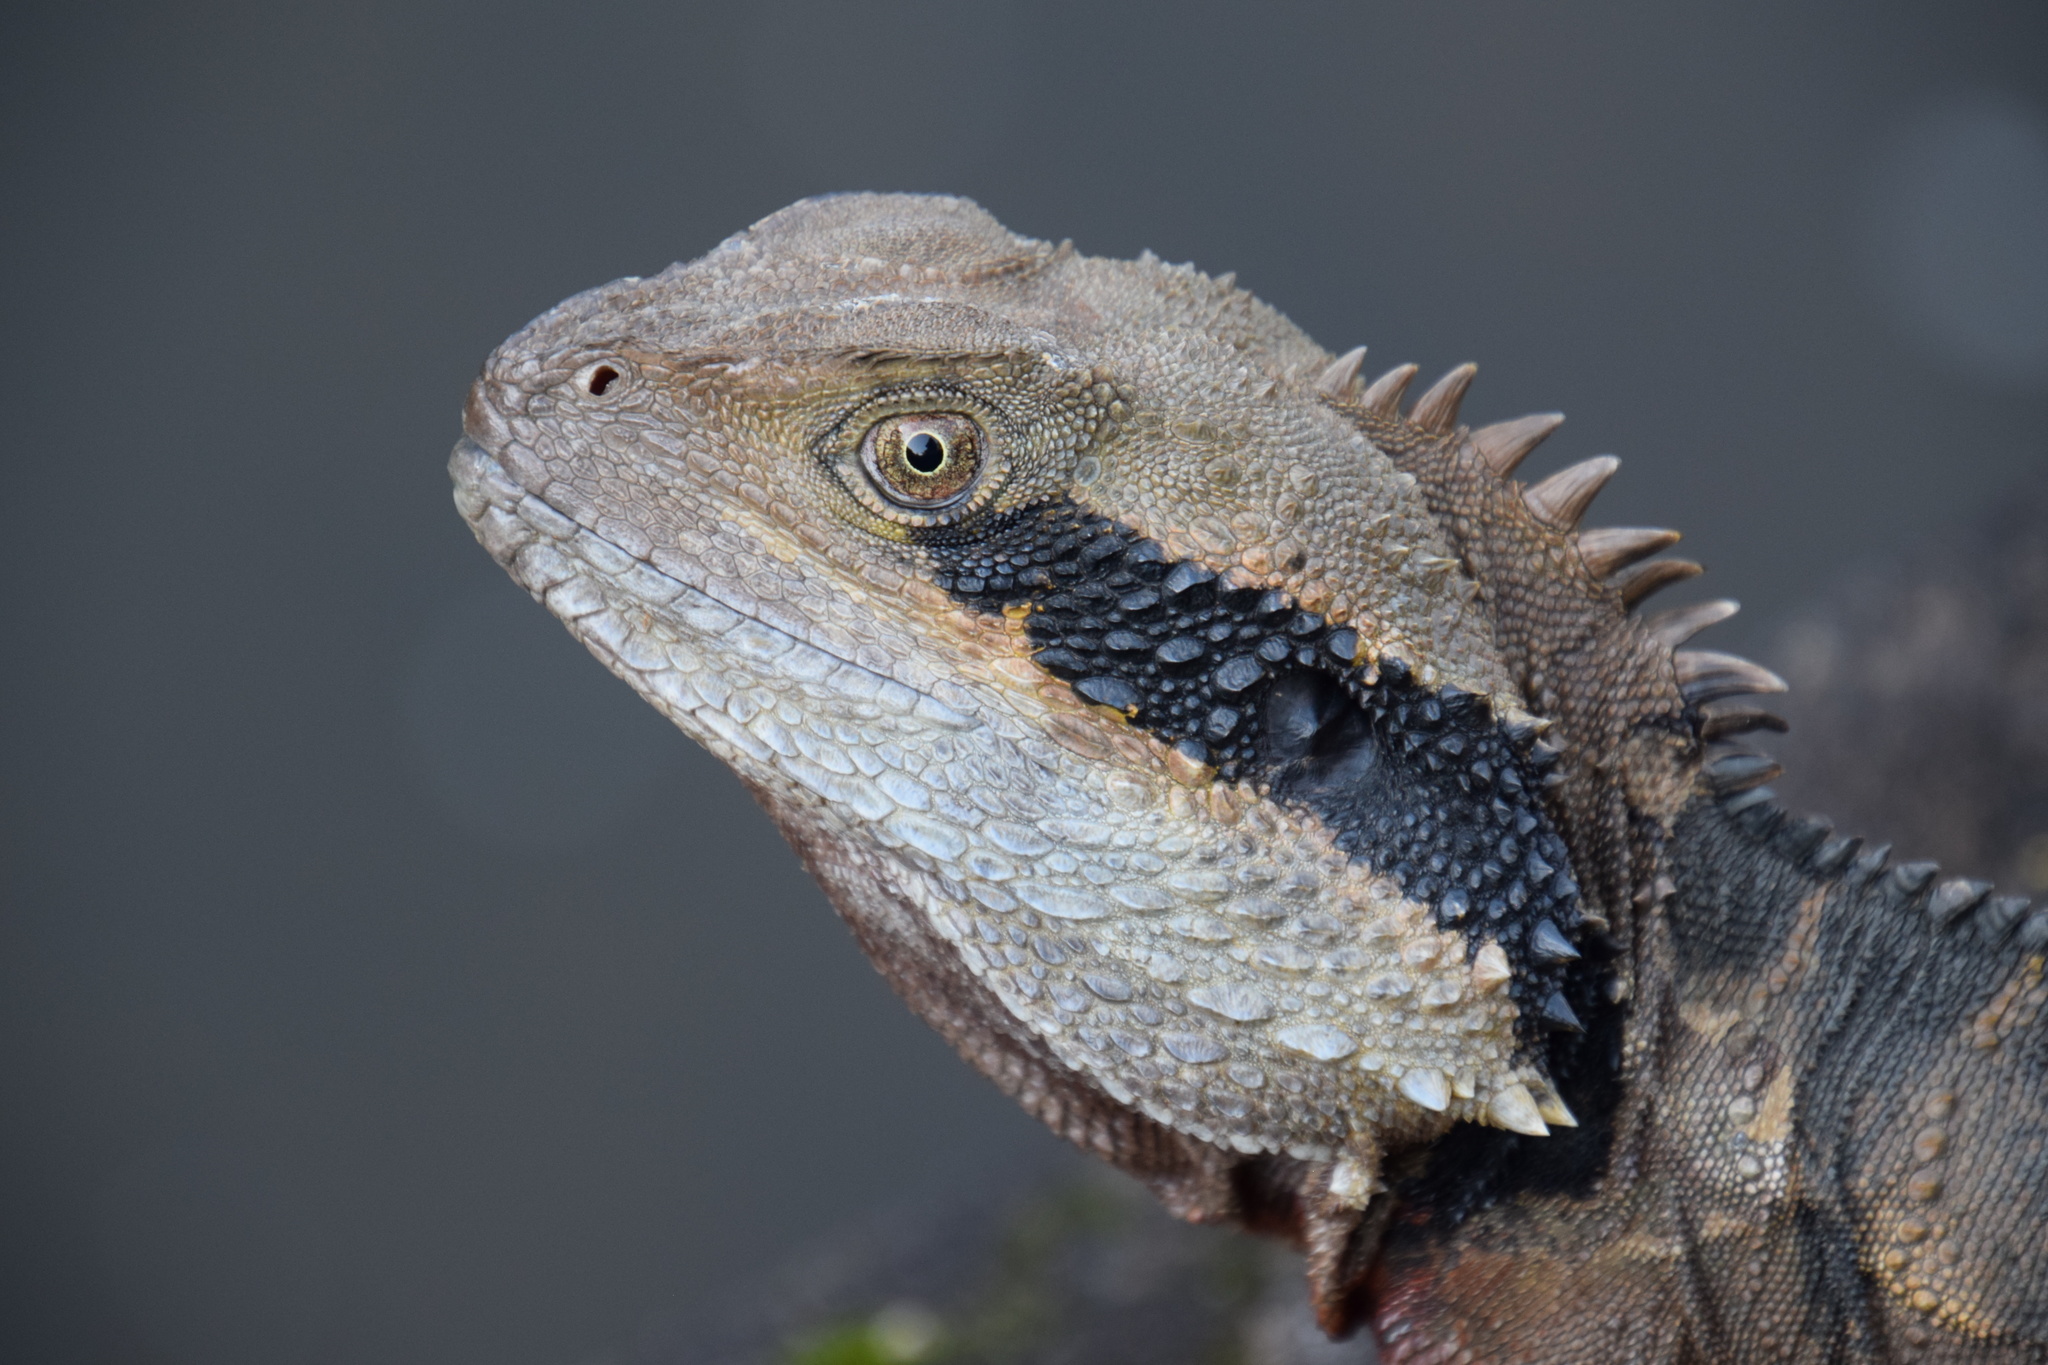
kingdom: Animalia
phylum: Chordata
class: Squamata
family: Agamidae
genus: Intellagama
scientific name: Intellagama lesueurii
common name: Eastern water dragon
